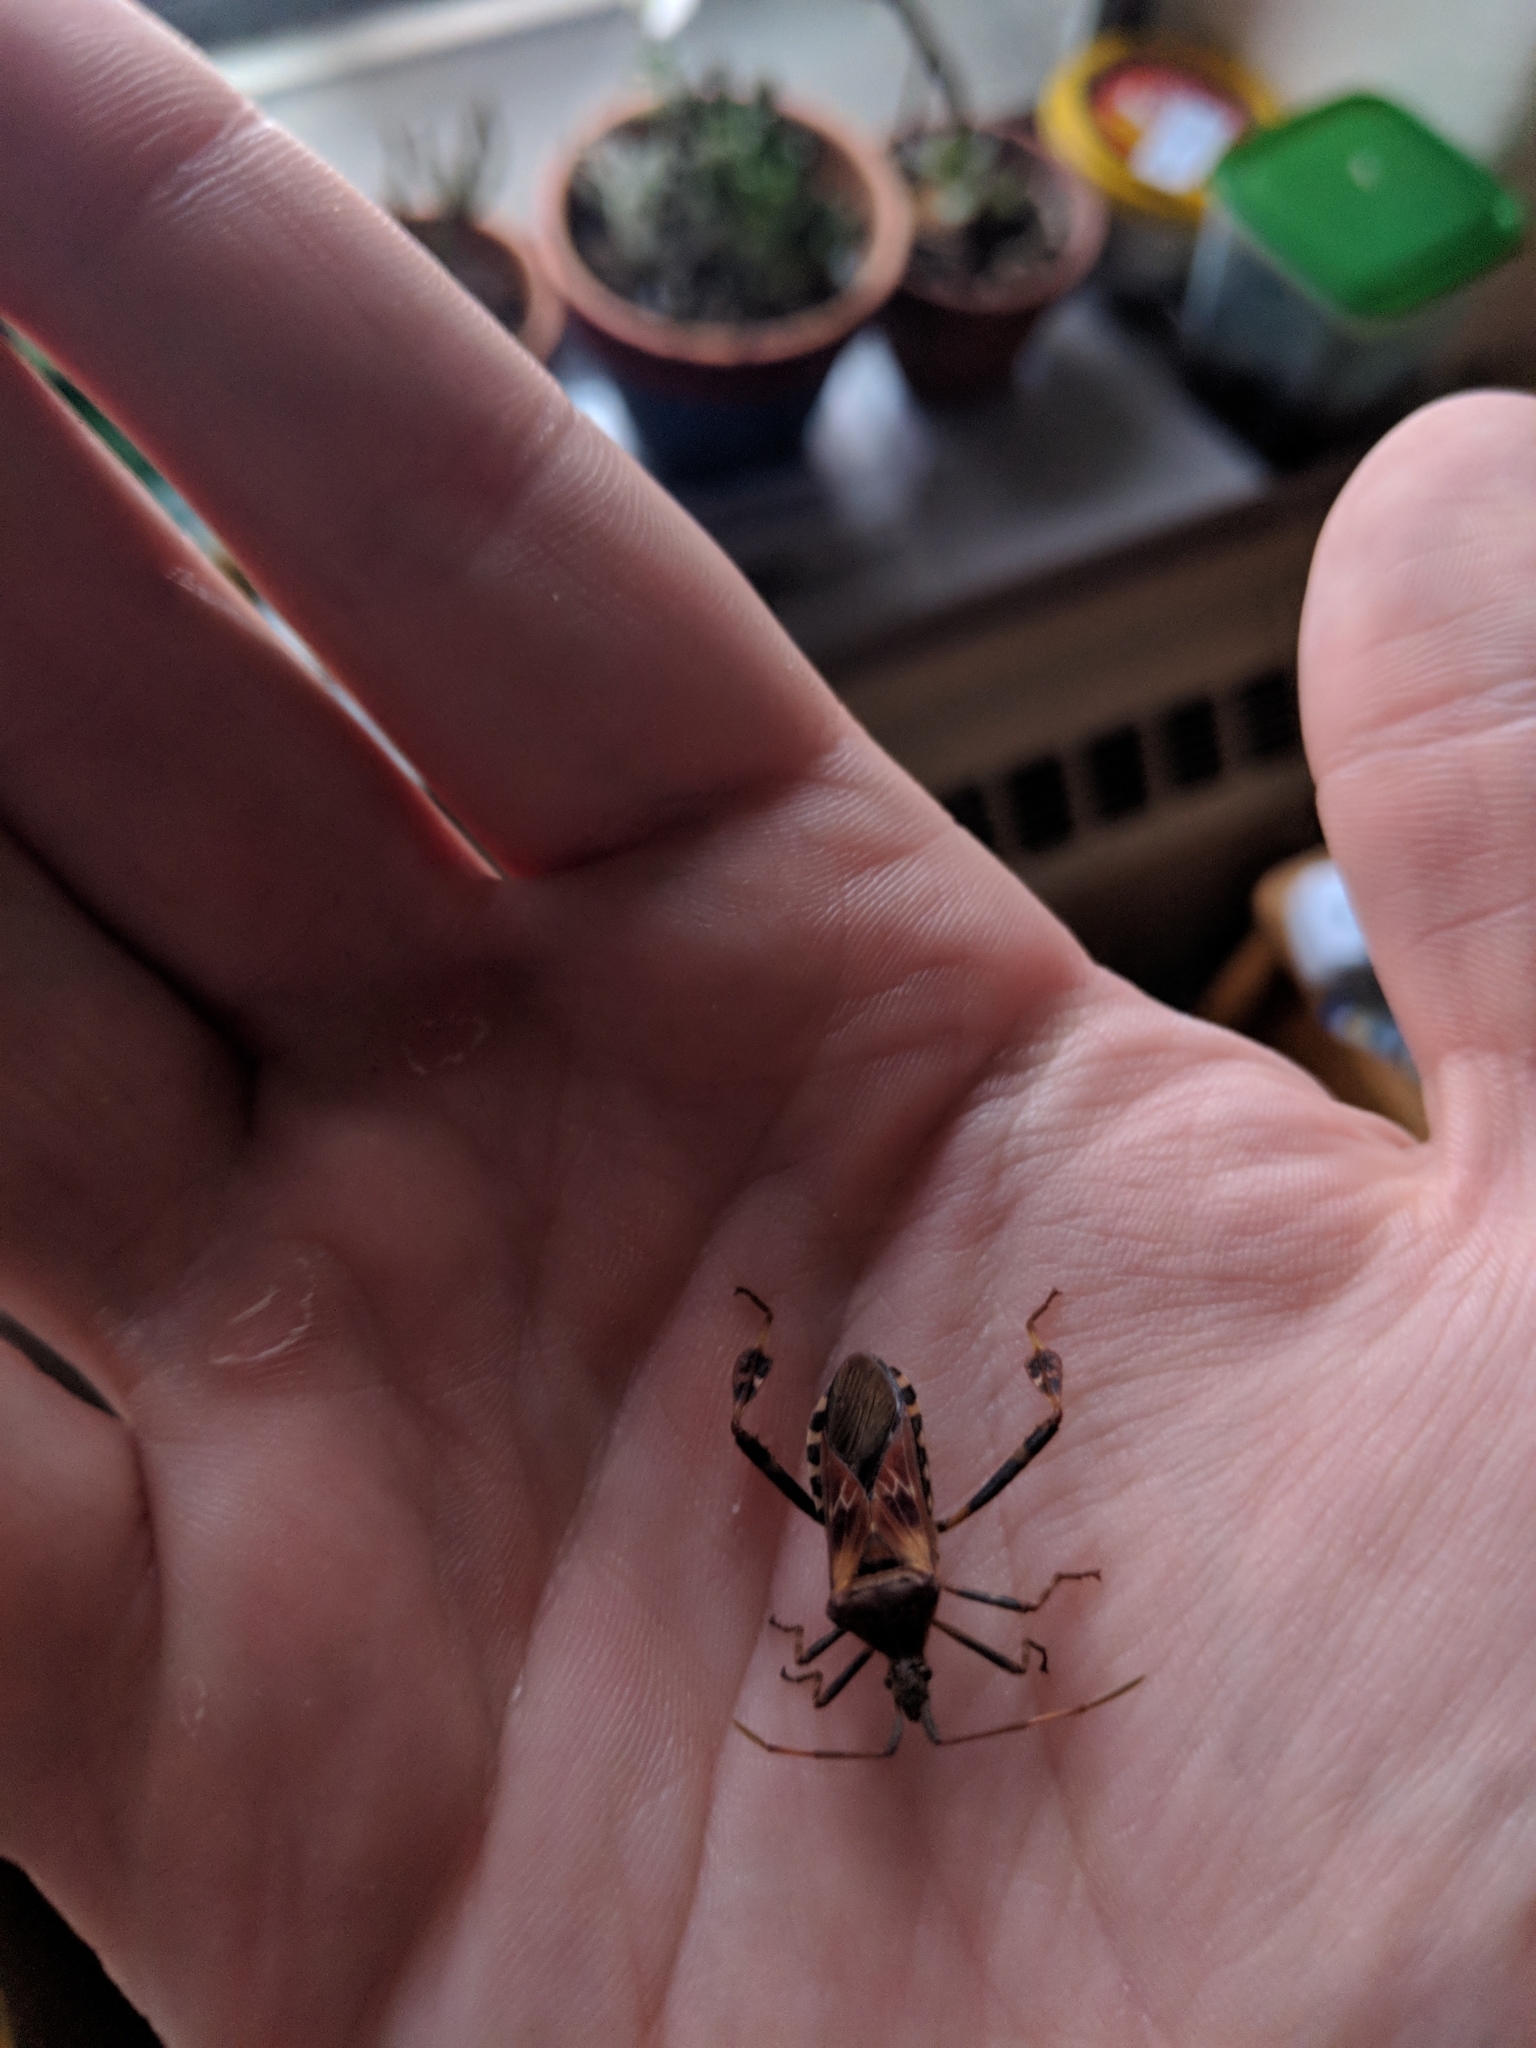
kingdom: Animalia
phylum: Arthropoda
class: Insecta
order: Hemiptera
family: Coreidae
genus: Leptoglossus
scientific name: Leptoglossus occidentalis
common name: Western conifer-seed bug
